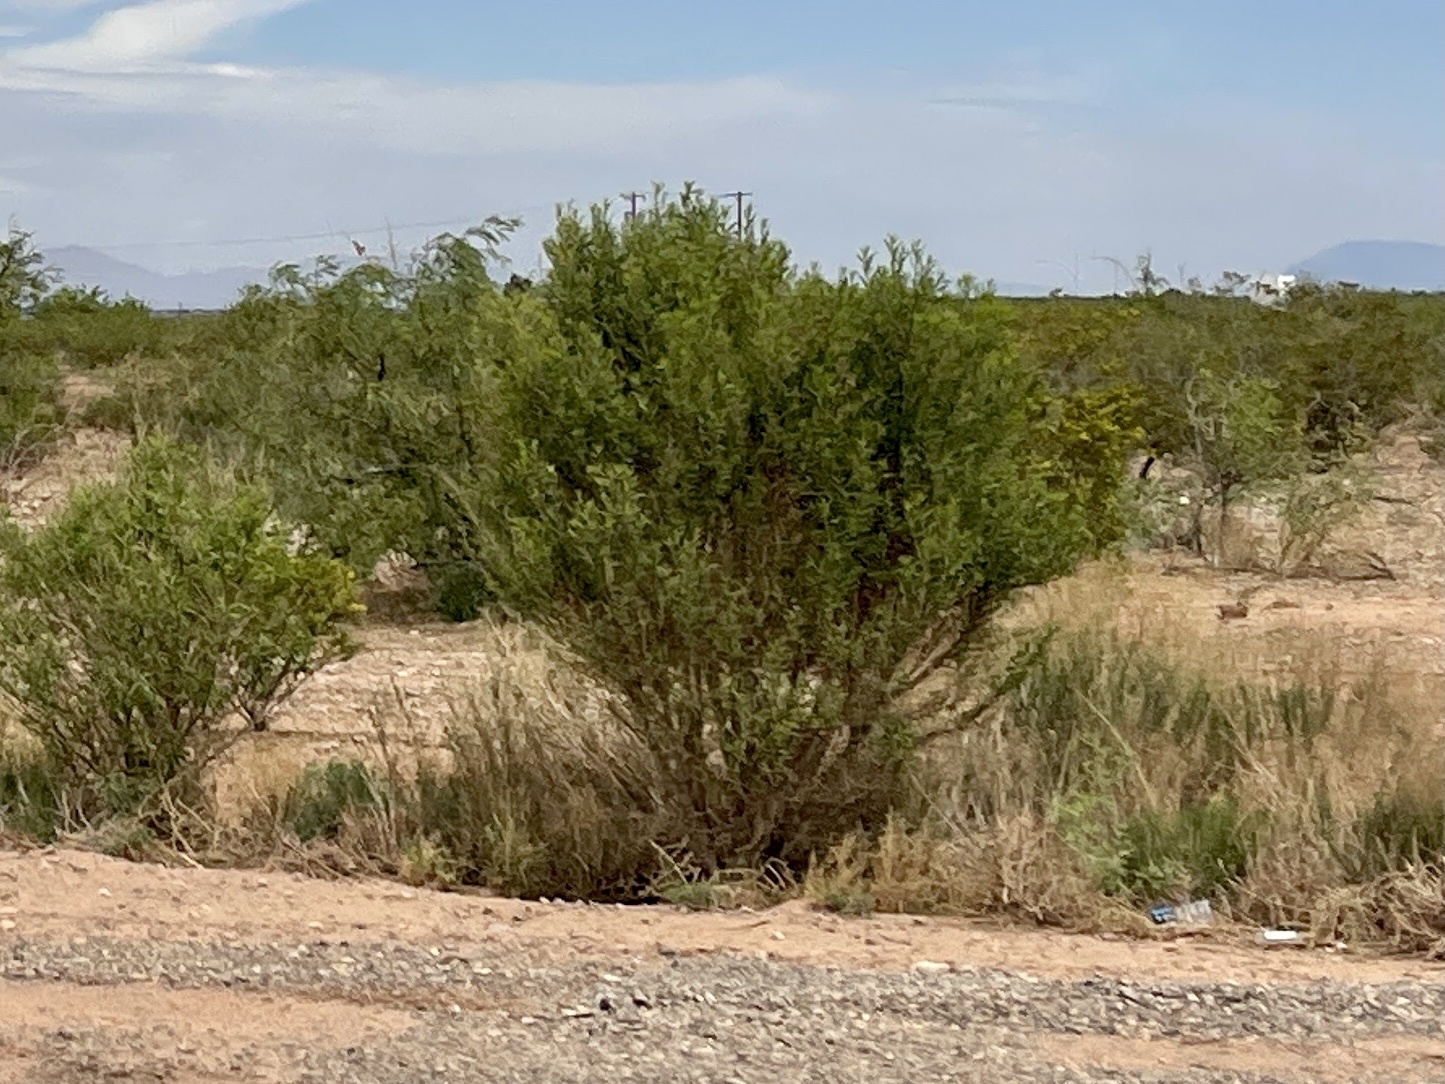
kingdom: Plantae
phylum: Tracheophyta
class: Magnoliopsida
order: Zygophyllales
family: Zygophyllaceae
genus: Larrea
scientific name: Larrea tridentata
